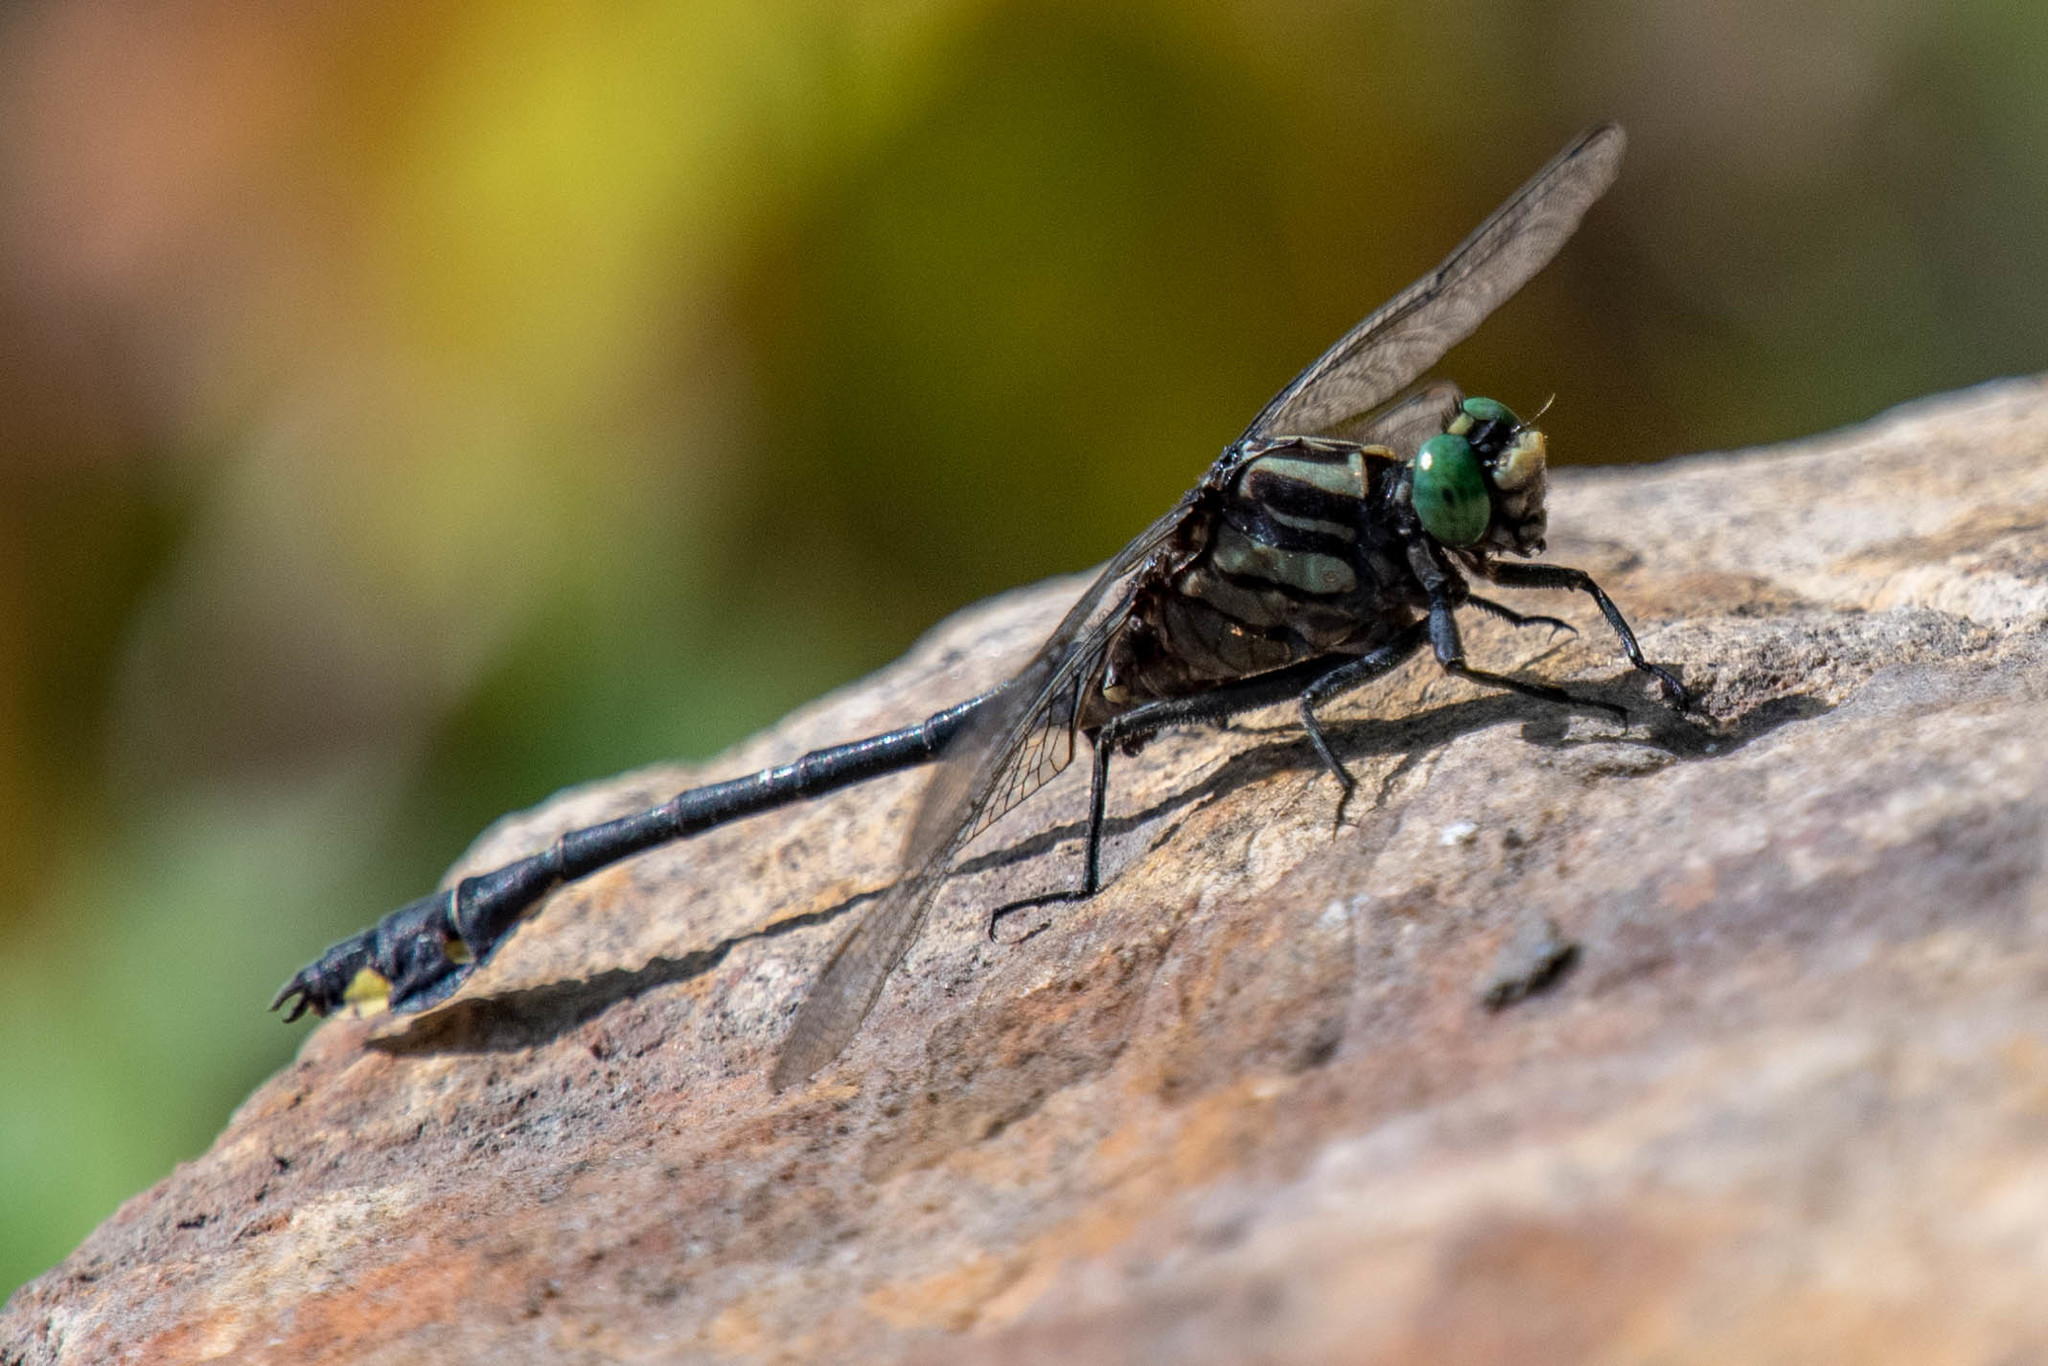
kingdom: Animalia
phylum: Arthropoda
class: Insecta
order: Odonata
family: Gomphidae
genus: Gomphurus
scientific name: Gomphurus vastus
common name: Cobra clubtail
